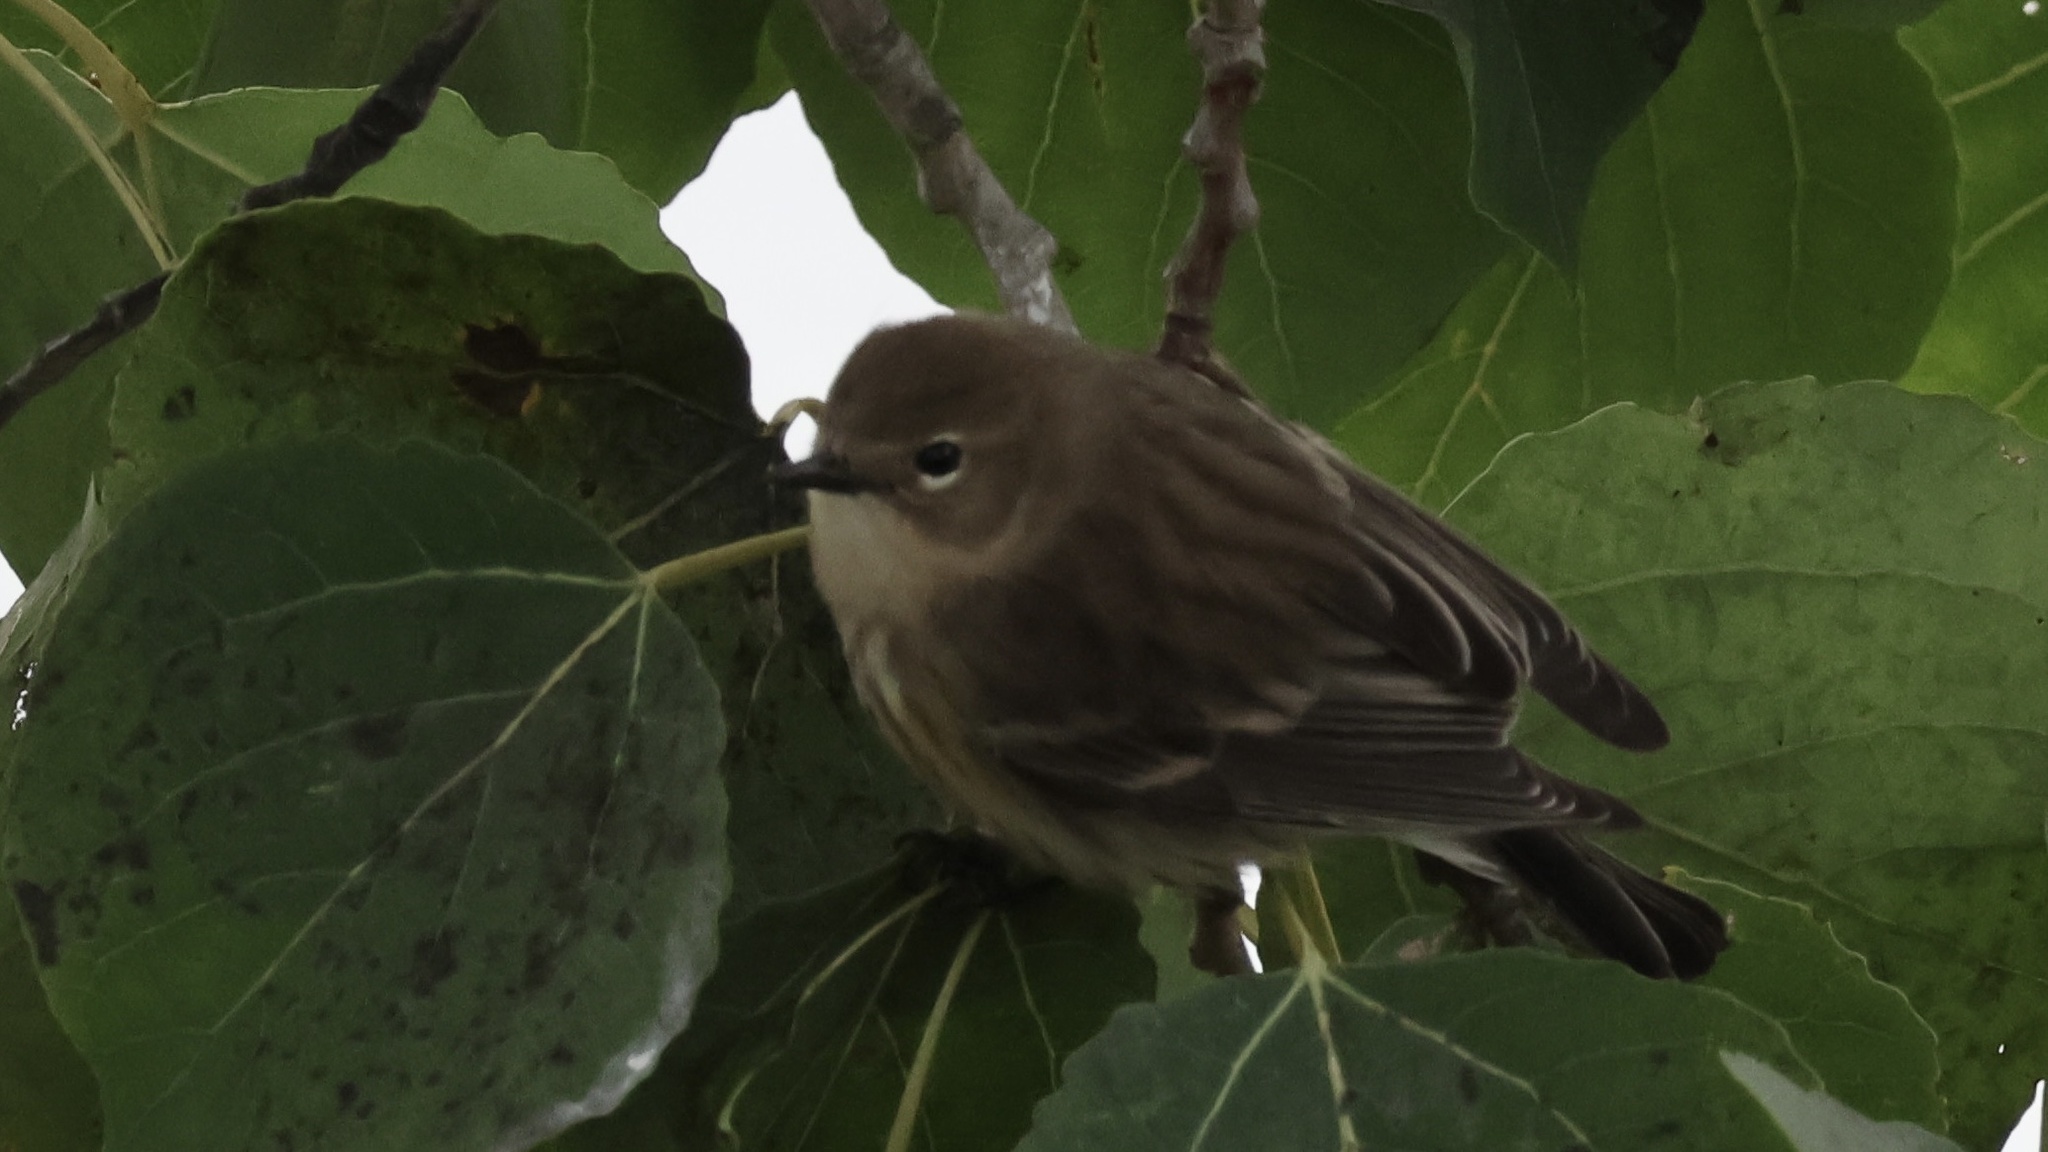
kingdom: Animalia
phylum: Chordata
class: Aves
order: Passeriformes
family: Parulidae
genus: Setophaga
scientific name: Setophaga coronata
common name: Myrtle warbler
